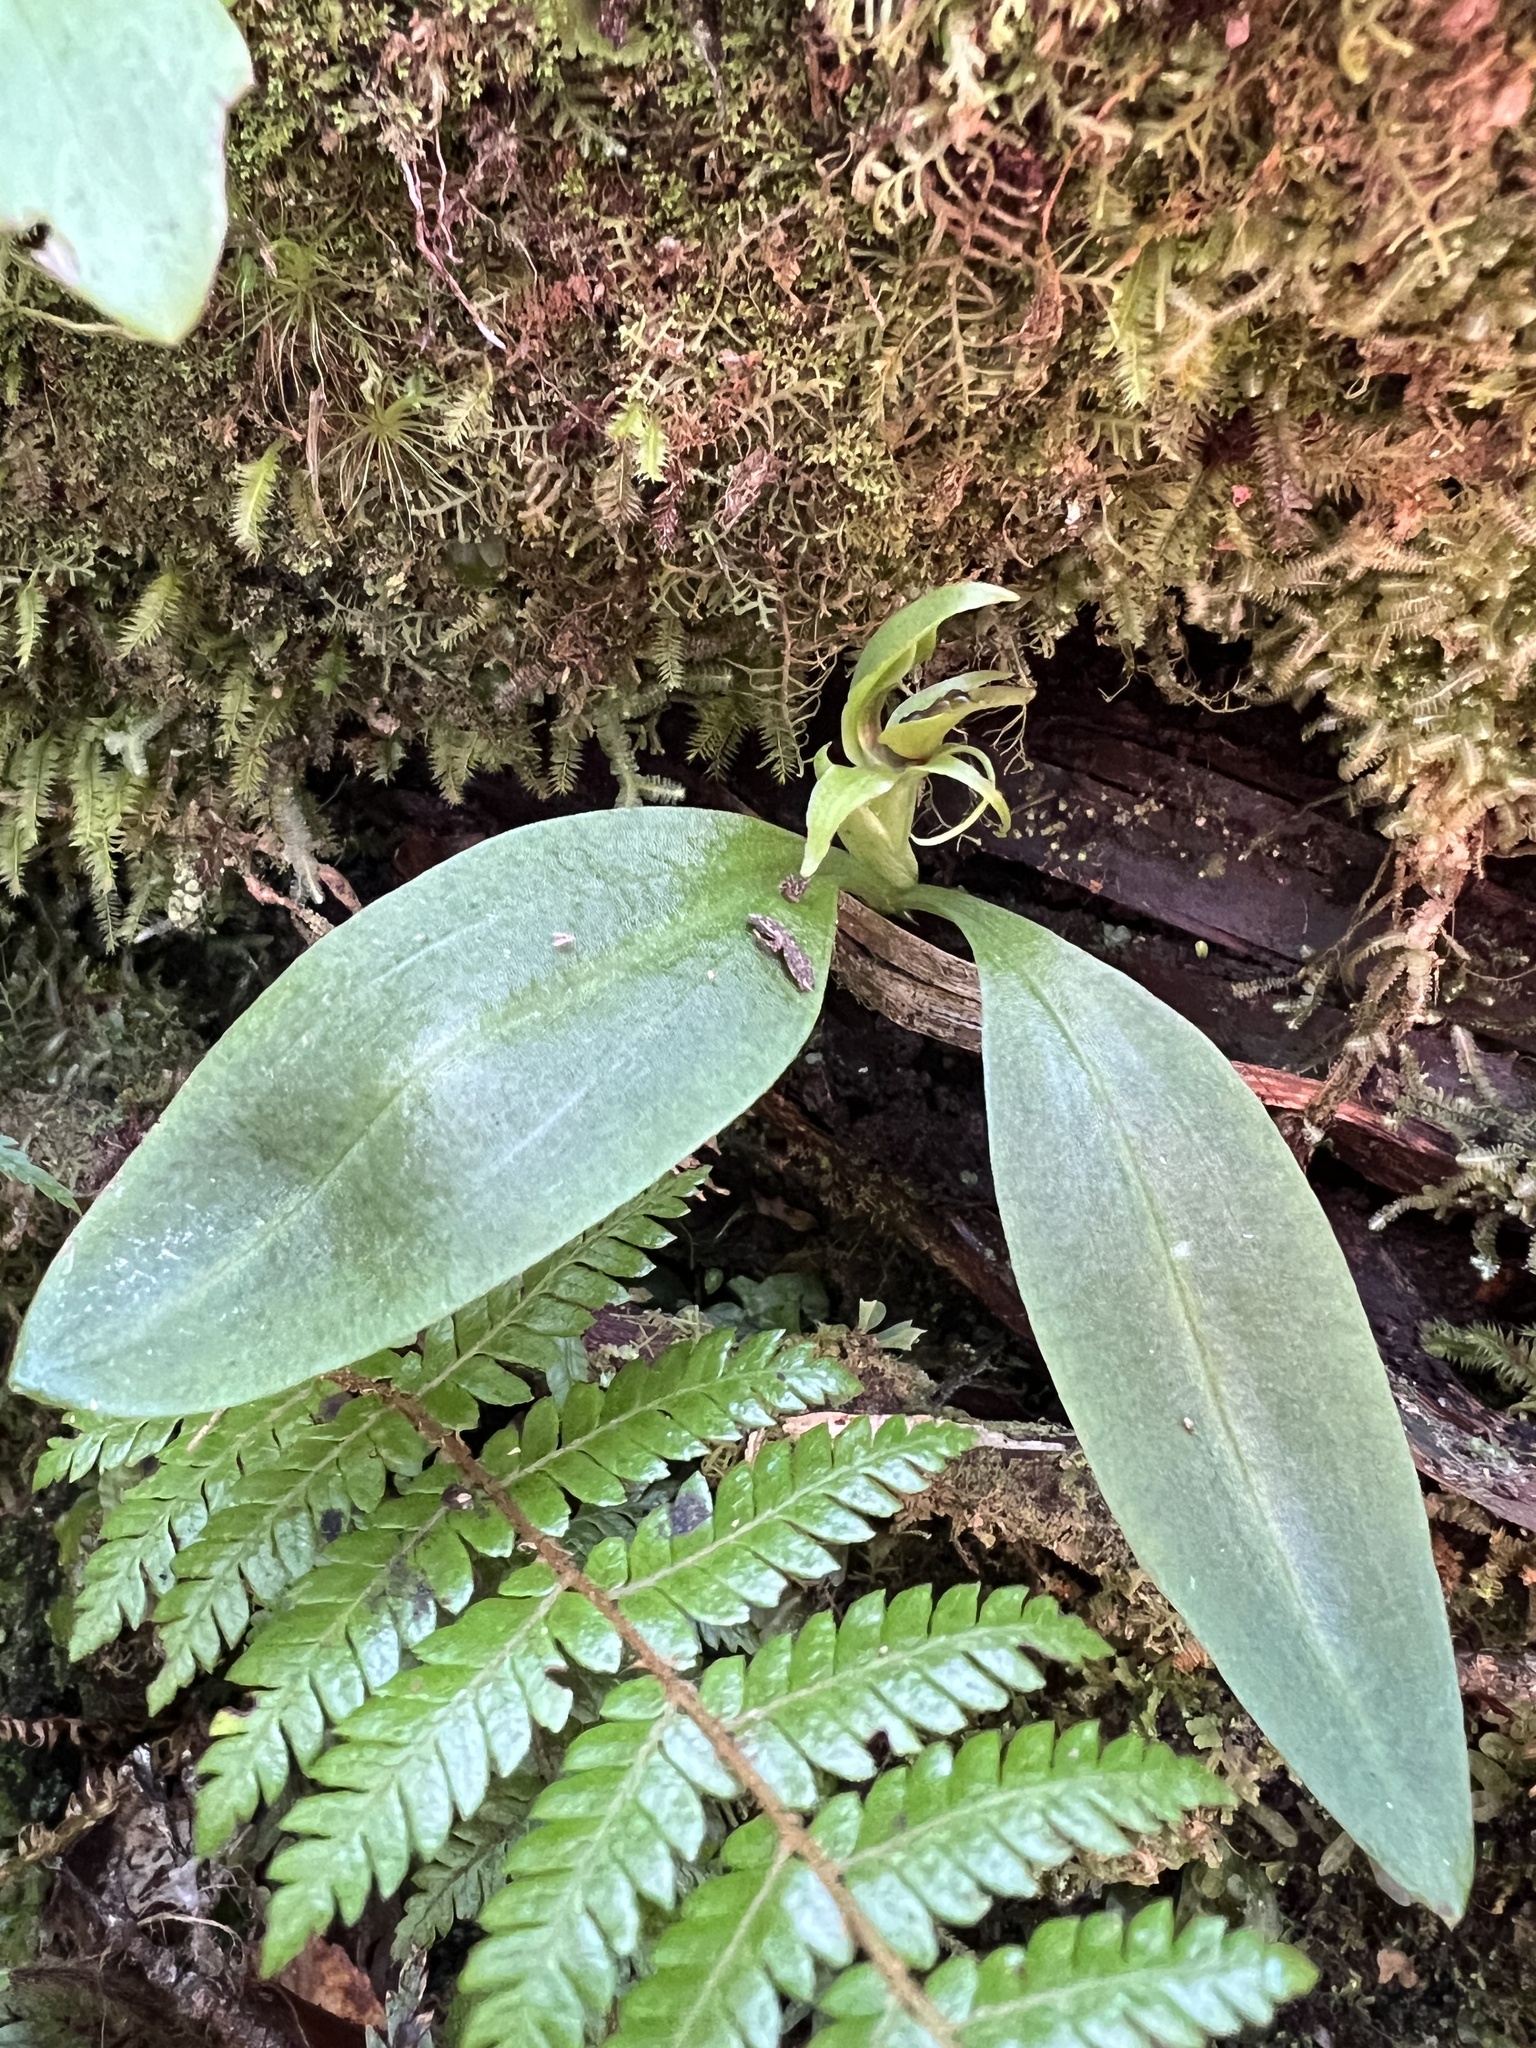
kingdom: Plantae
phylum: Tracheophyta
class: Liliopsida
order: Asparagales
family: Orchidaceae
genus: Chiloglottis
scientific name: Chiloglottis cornuta
